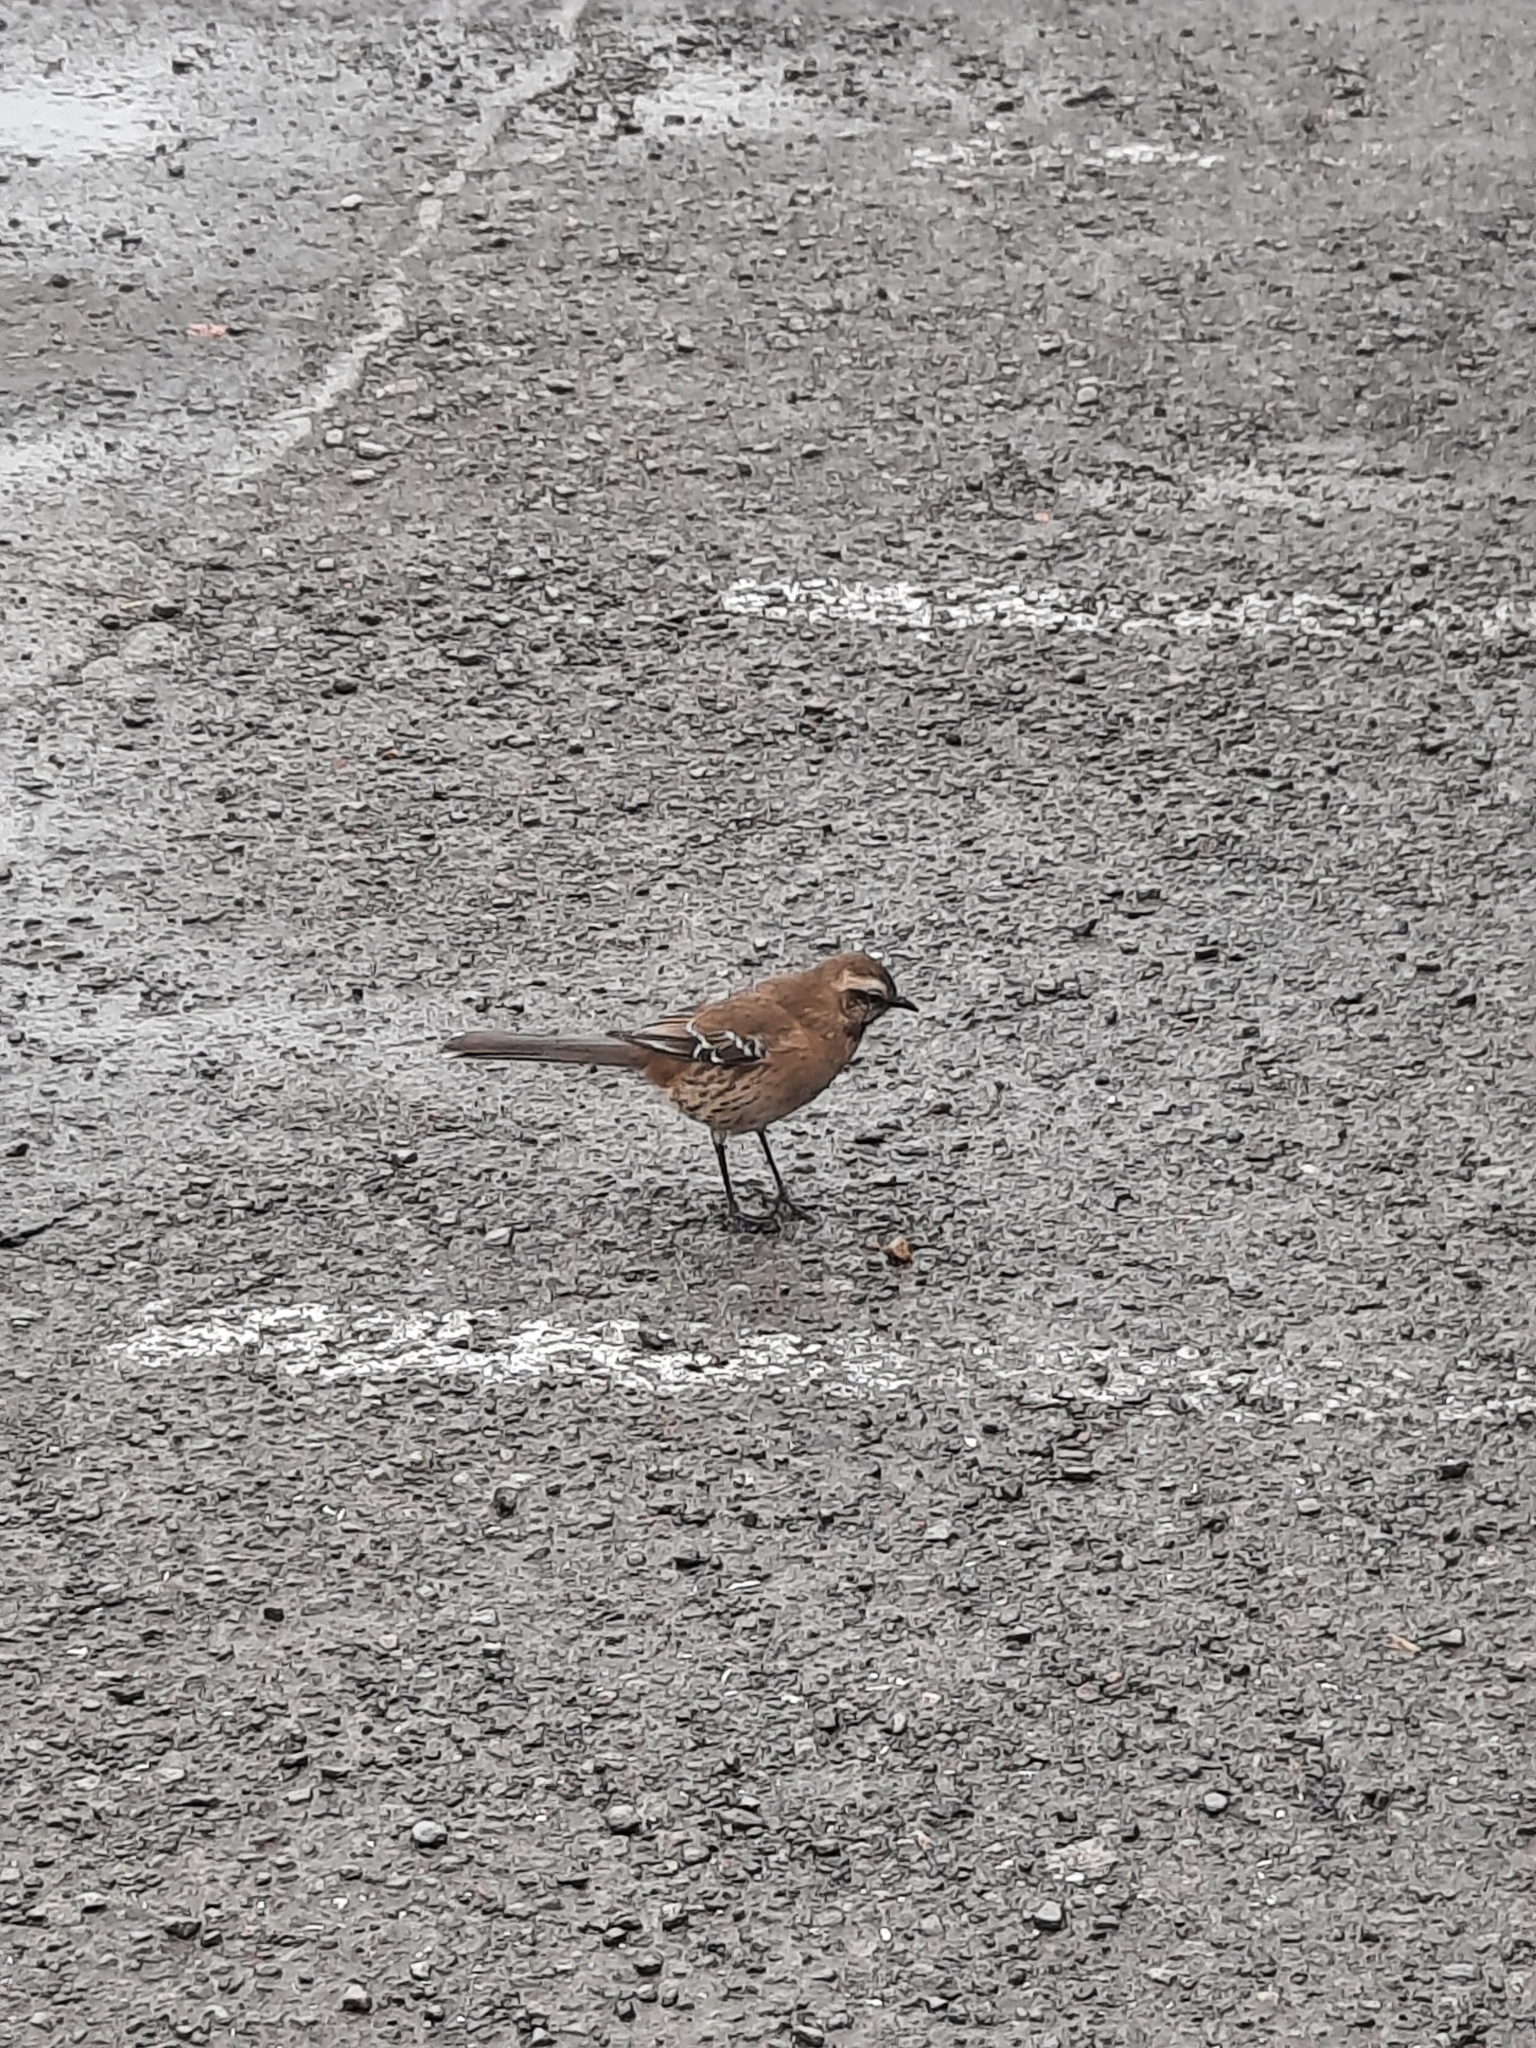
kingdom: Animalia
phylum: Chordata
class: Aves
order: Passeriformes
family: Mimidae
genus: Mimus
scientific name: Mimus thenca
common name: Chilean mockingbird
